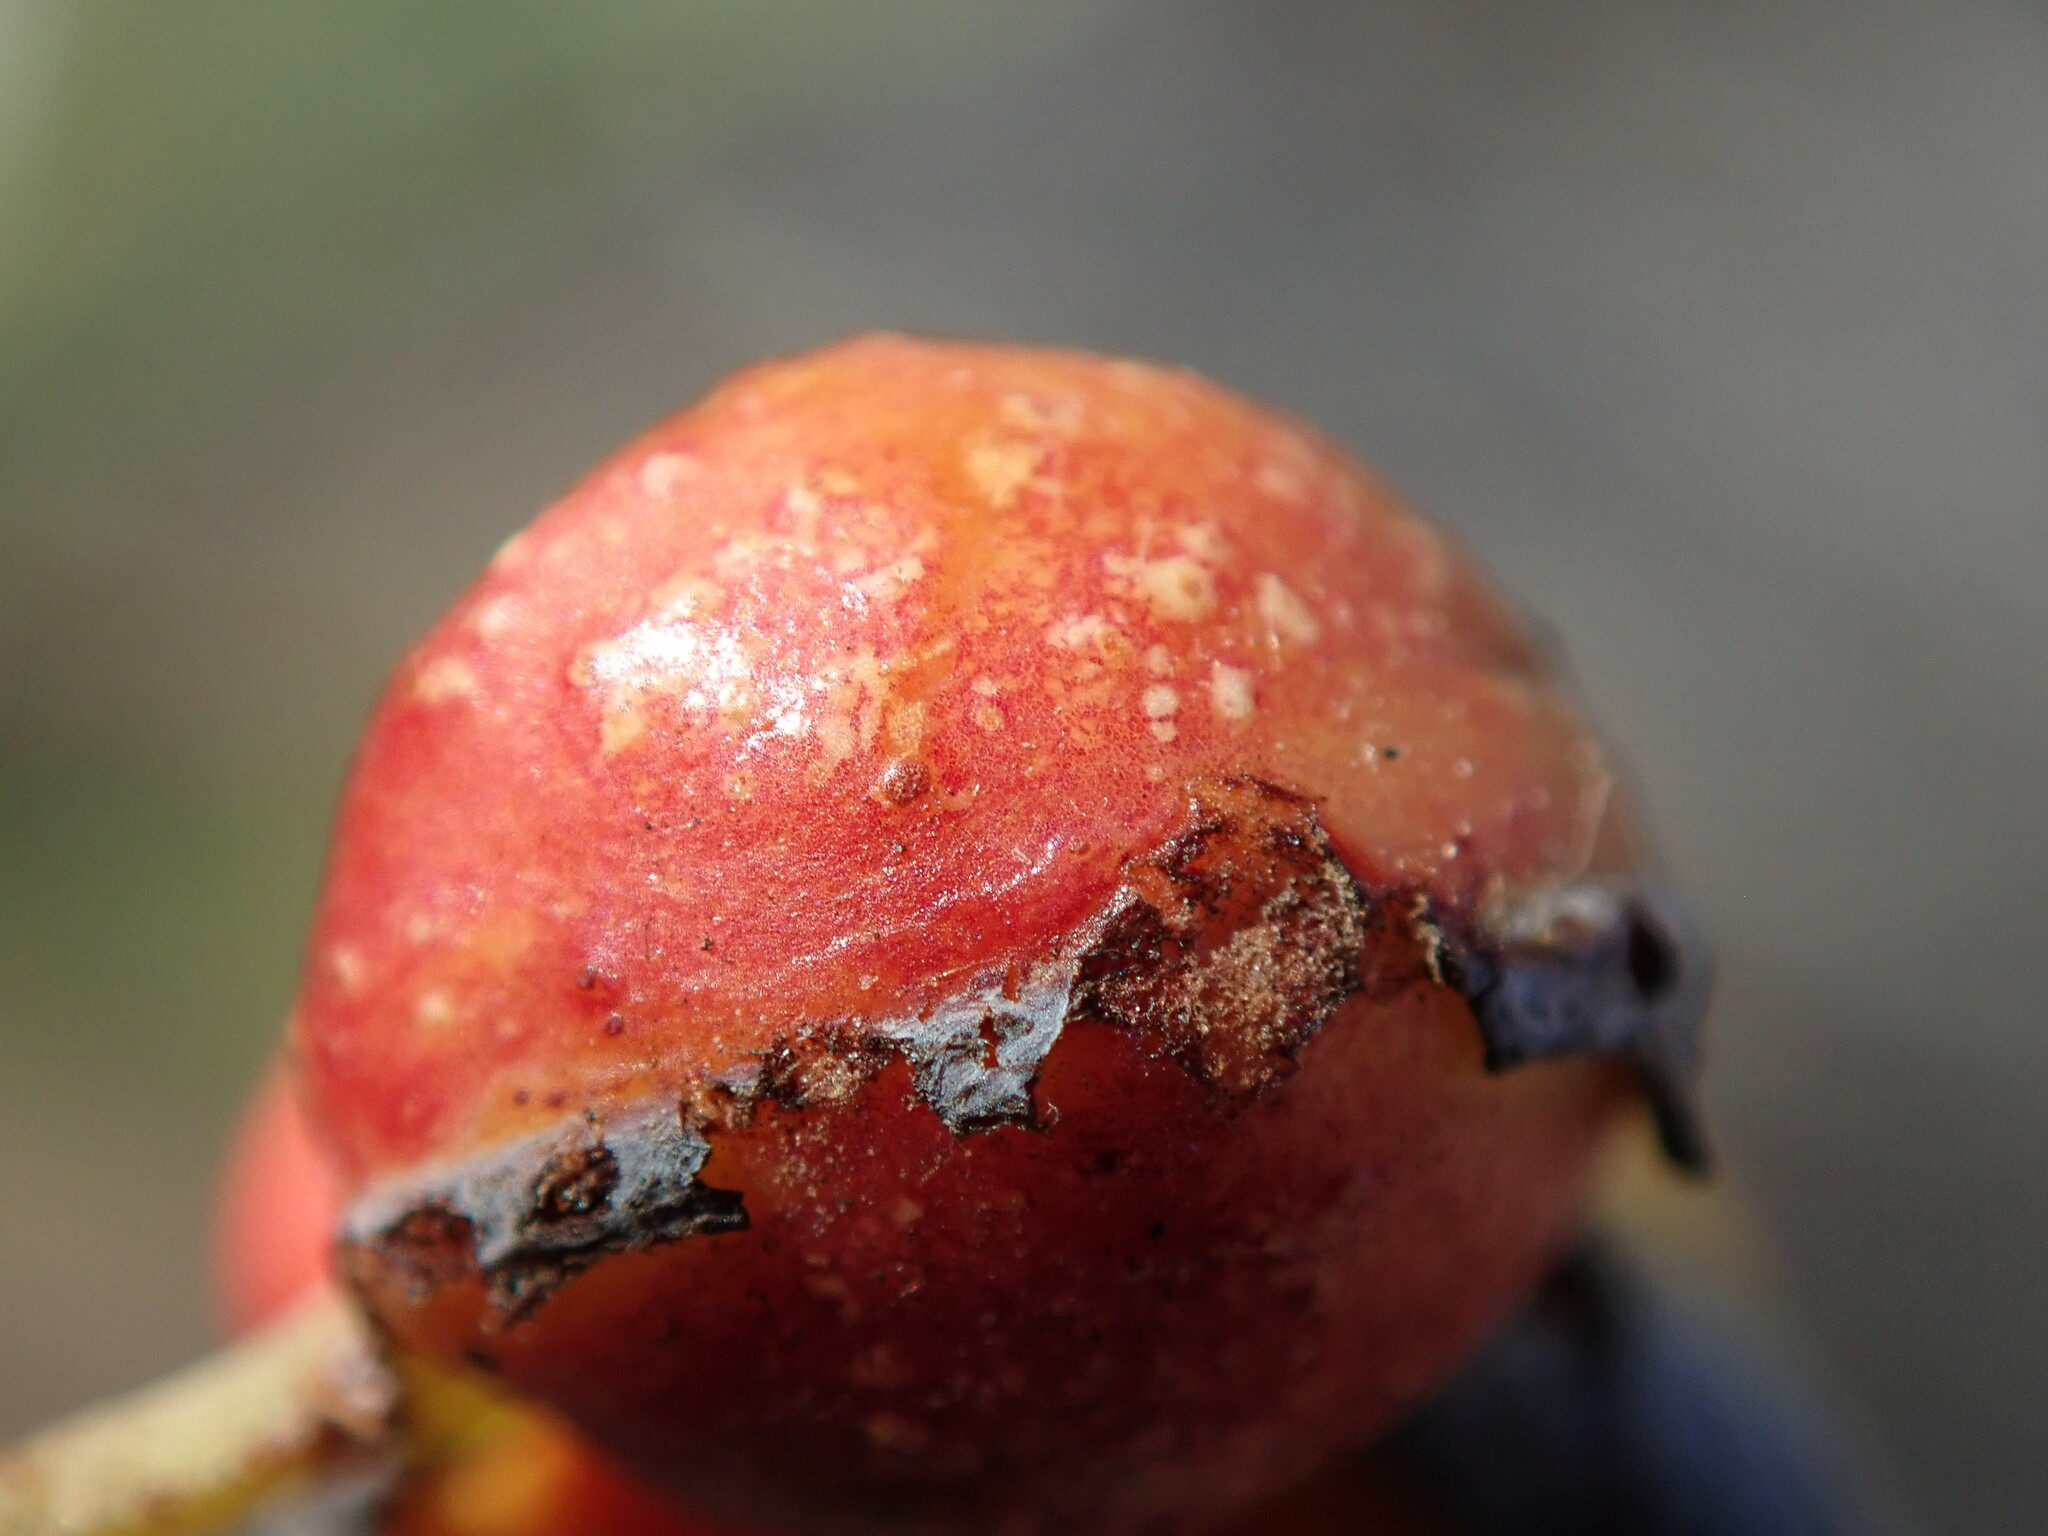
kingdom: Animalia
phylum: Arthropoda
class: Insecta
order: Hymenoptera
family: Tenthredinidae
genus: Euura
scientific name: Euura
